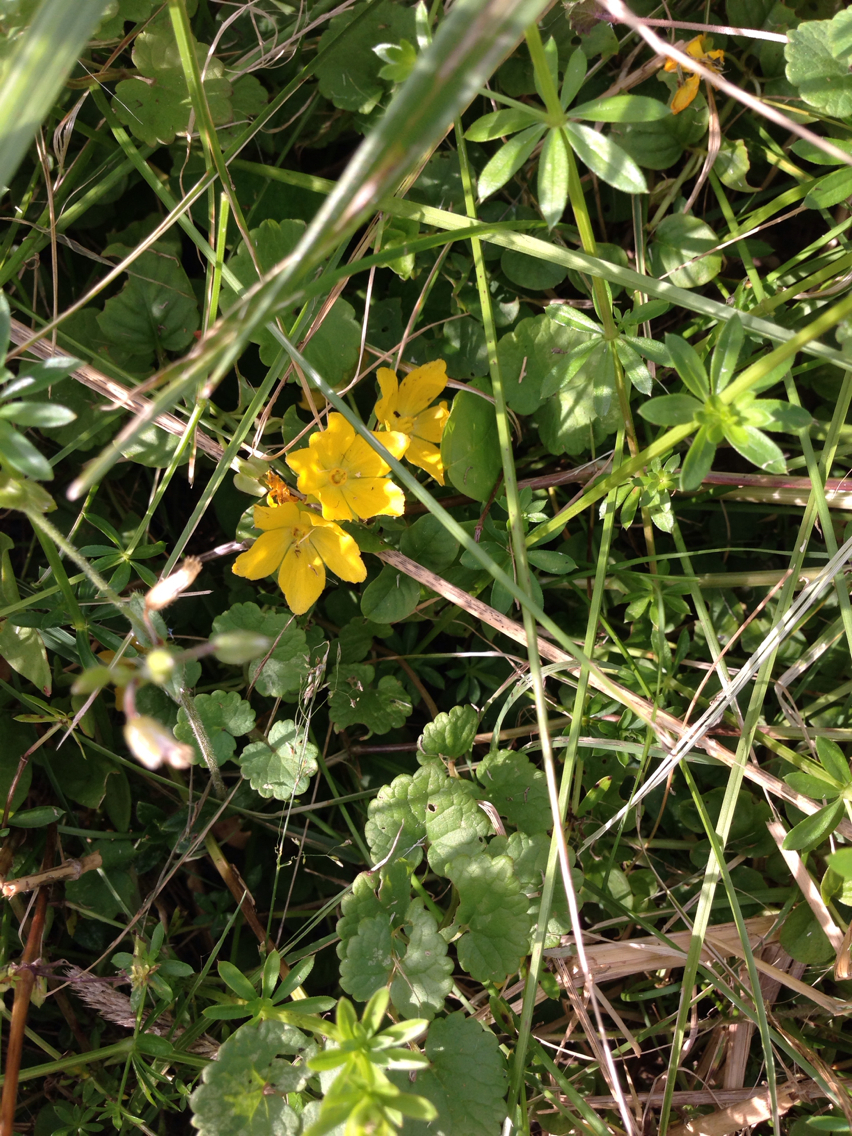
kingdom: Plantae
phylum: Tracheophyta
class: Magnoliopsida
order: Ericales
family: Primulaceae
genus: Lysimachia
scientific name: Lysimachia nummularia
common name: Moneywort
